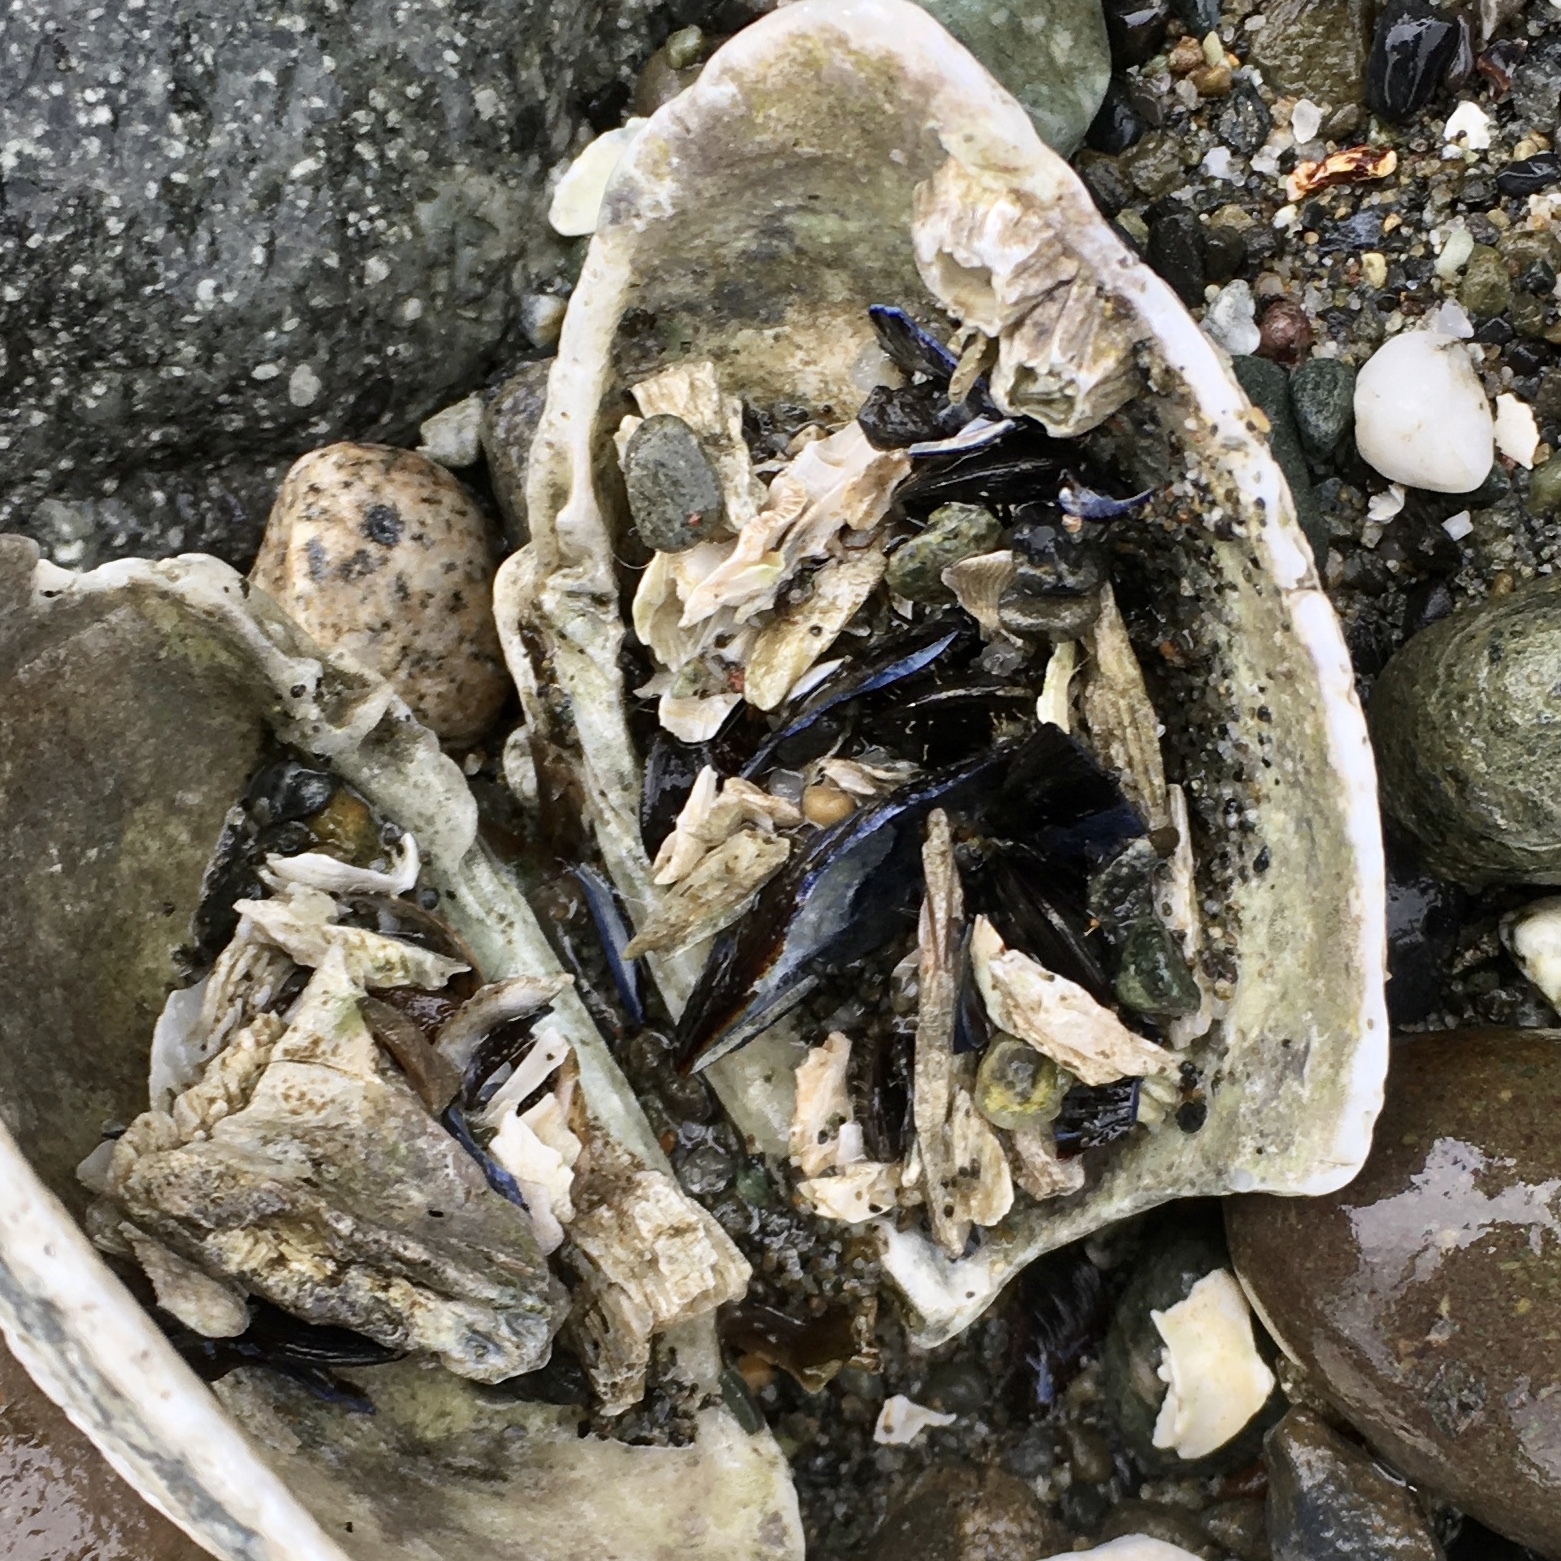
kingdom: Animalia
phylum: Mollusca
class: Bivalvia
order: Mytilida
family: Mytilidae
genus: Mytilus
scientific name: Mytilus
